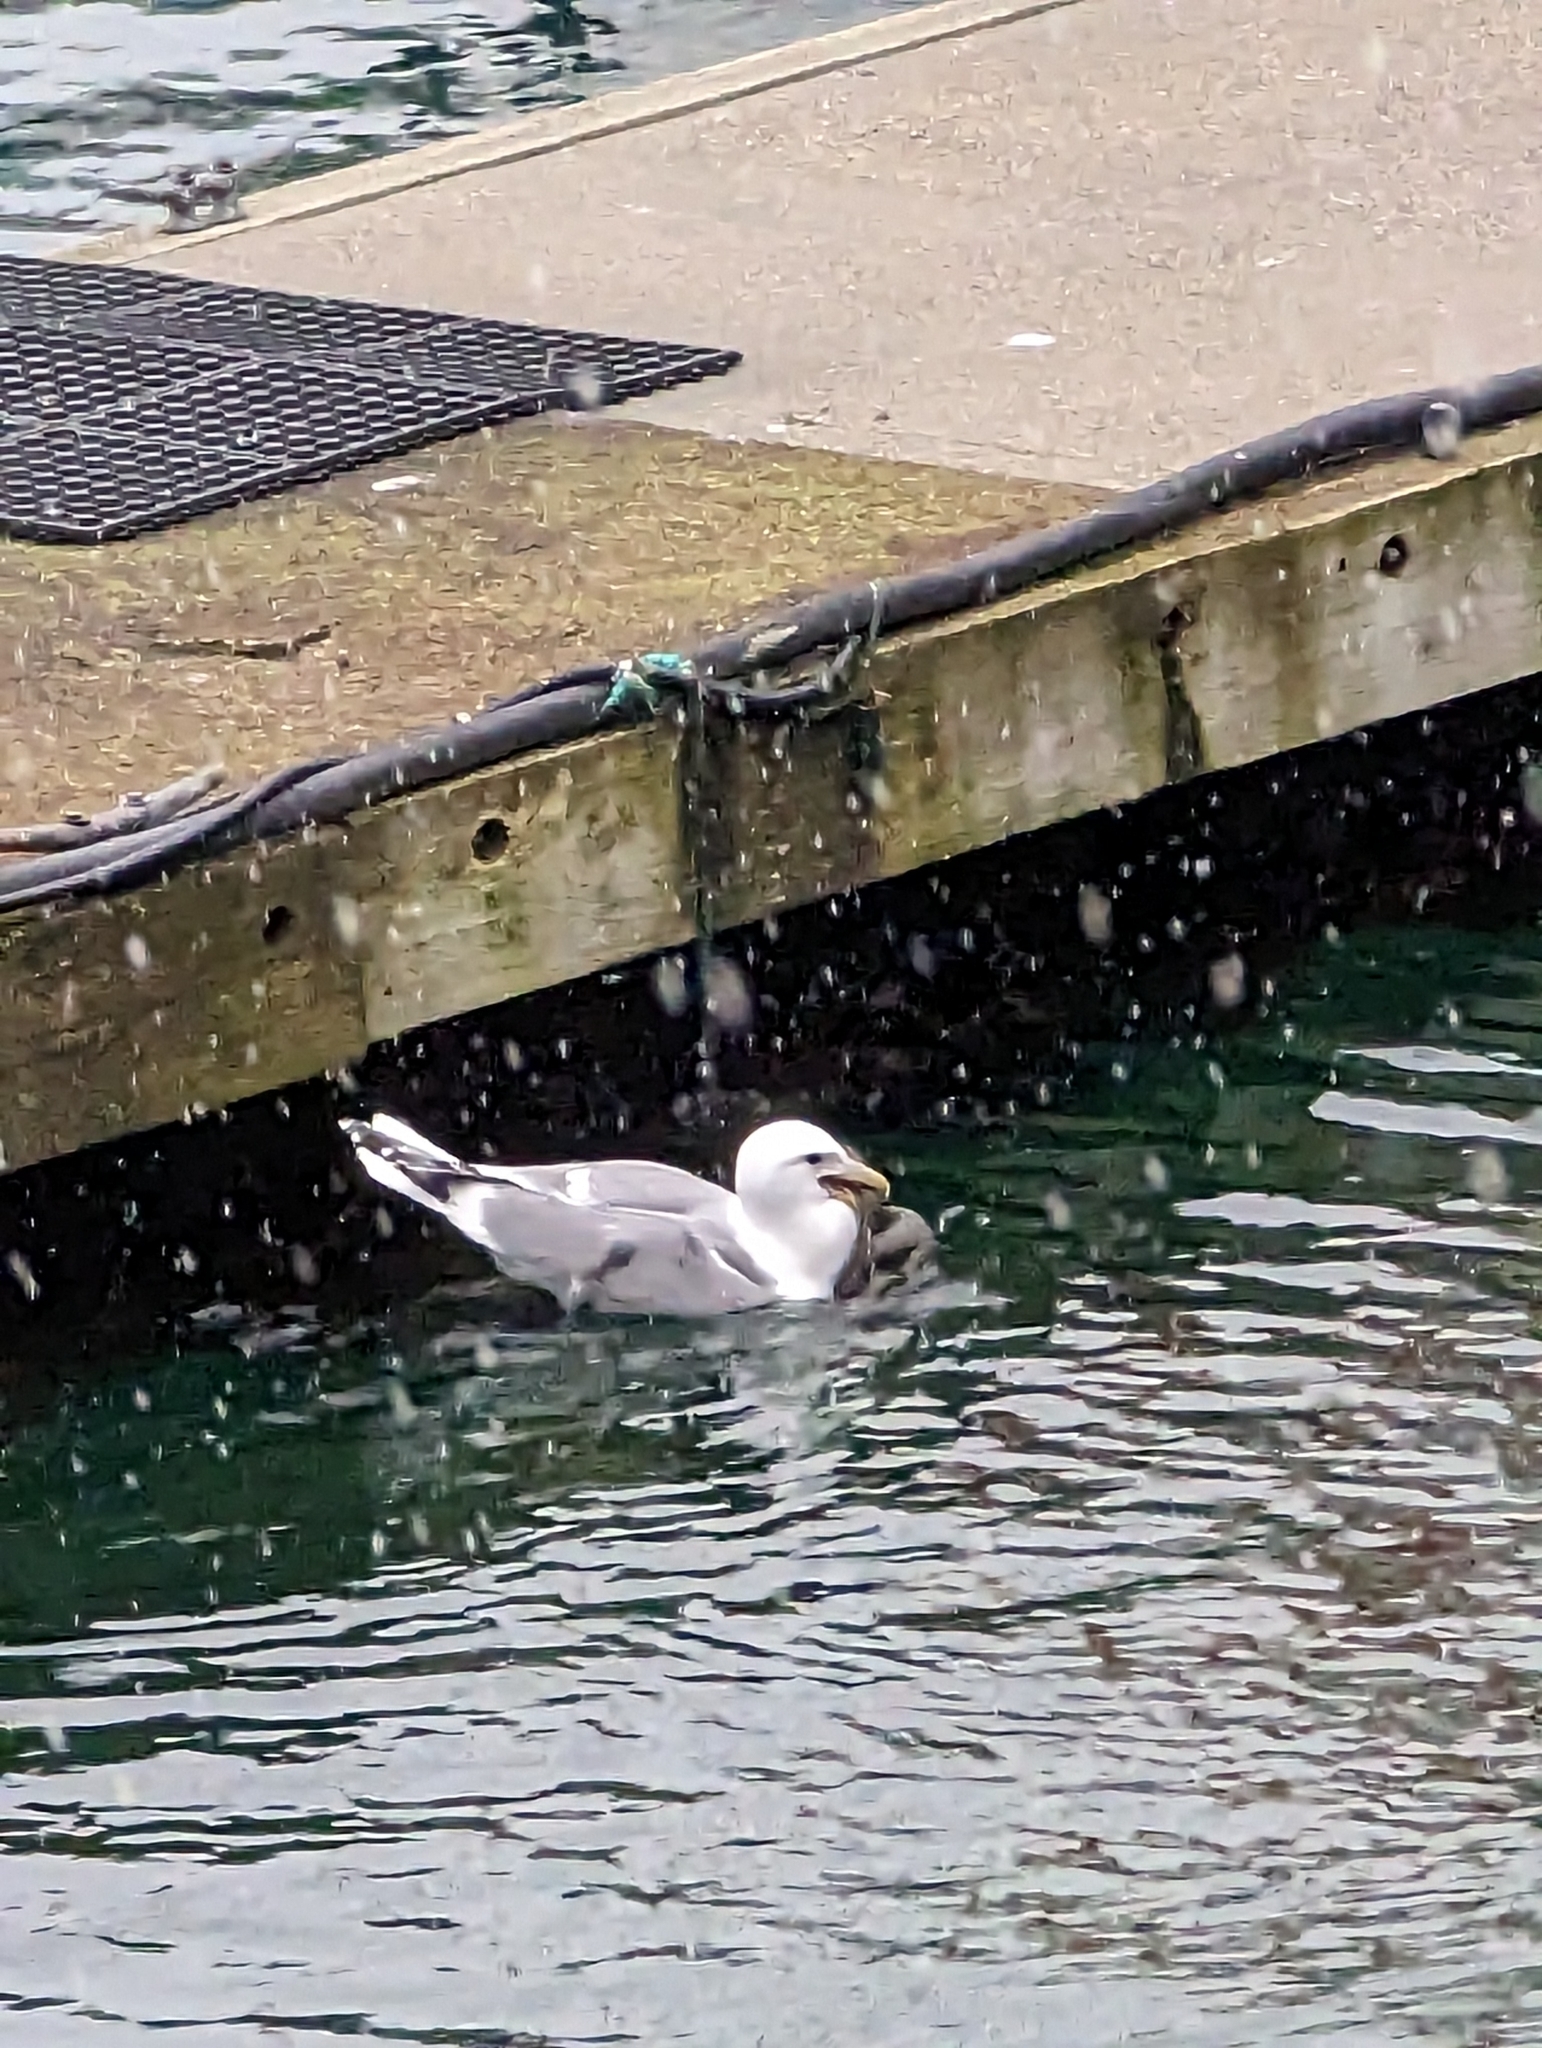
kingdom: Animalia
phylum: Chordata
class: Aves
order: Charadriiformes
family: Laridae
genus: Larus
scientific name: Larus
